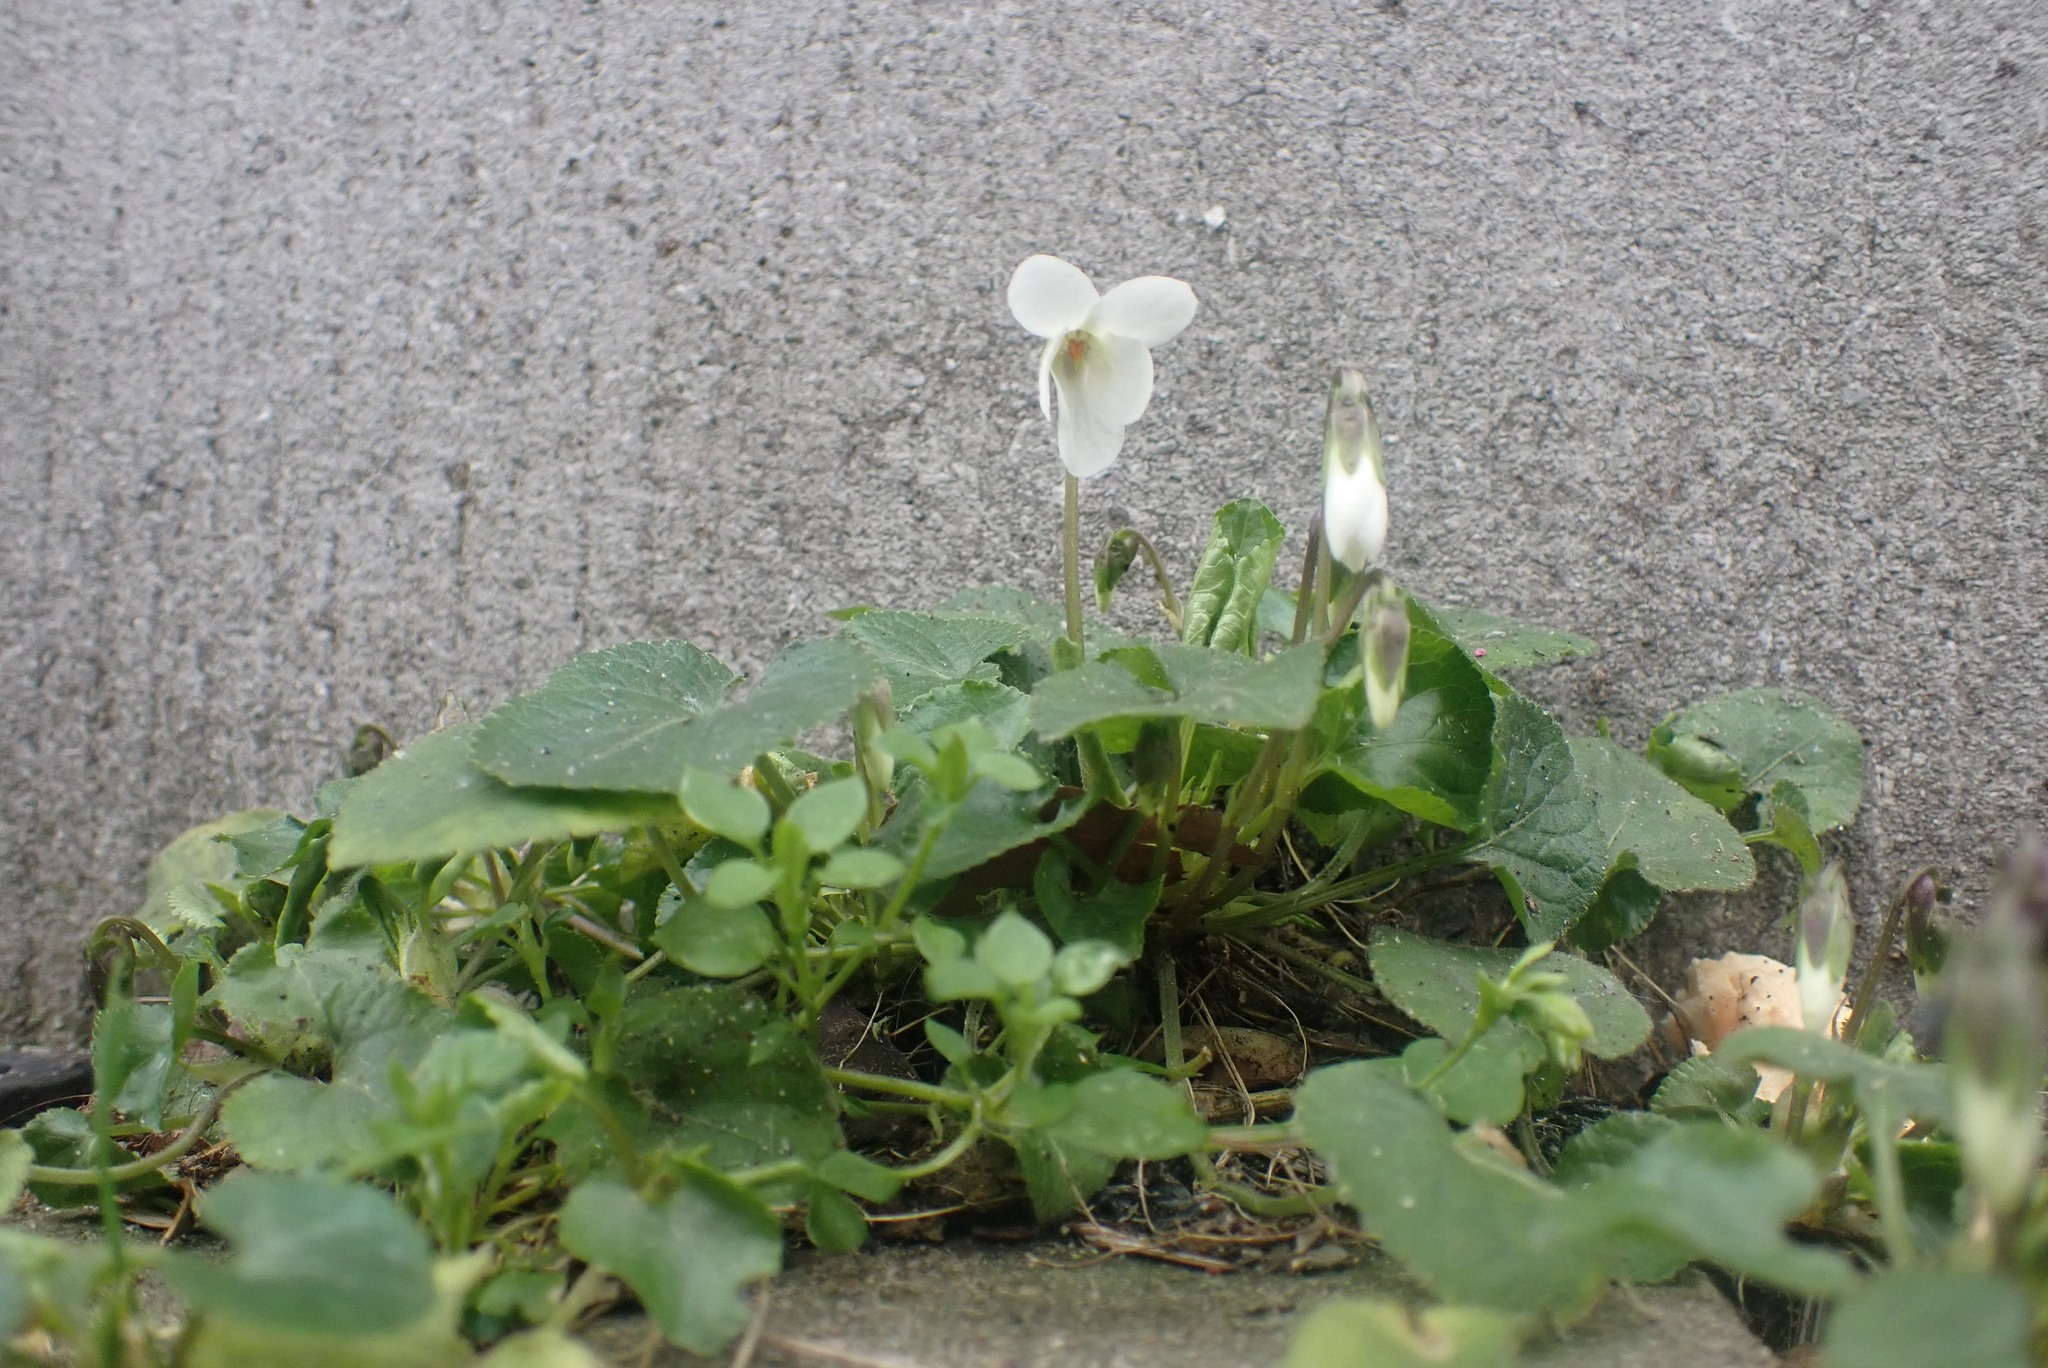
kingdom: Plantae
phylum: Tracheophyta
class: Magnoliopsida
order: Malpighiales
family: Violaceae
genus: Viola
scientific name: Viola odorata
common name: Sweet violet
